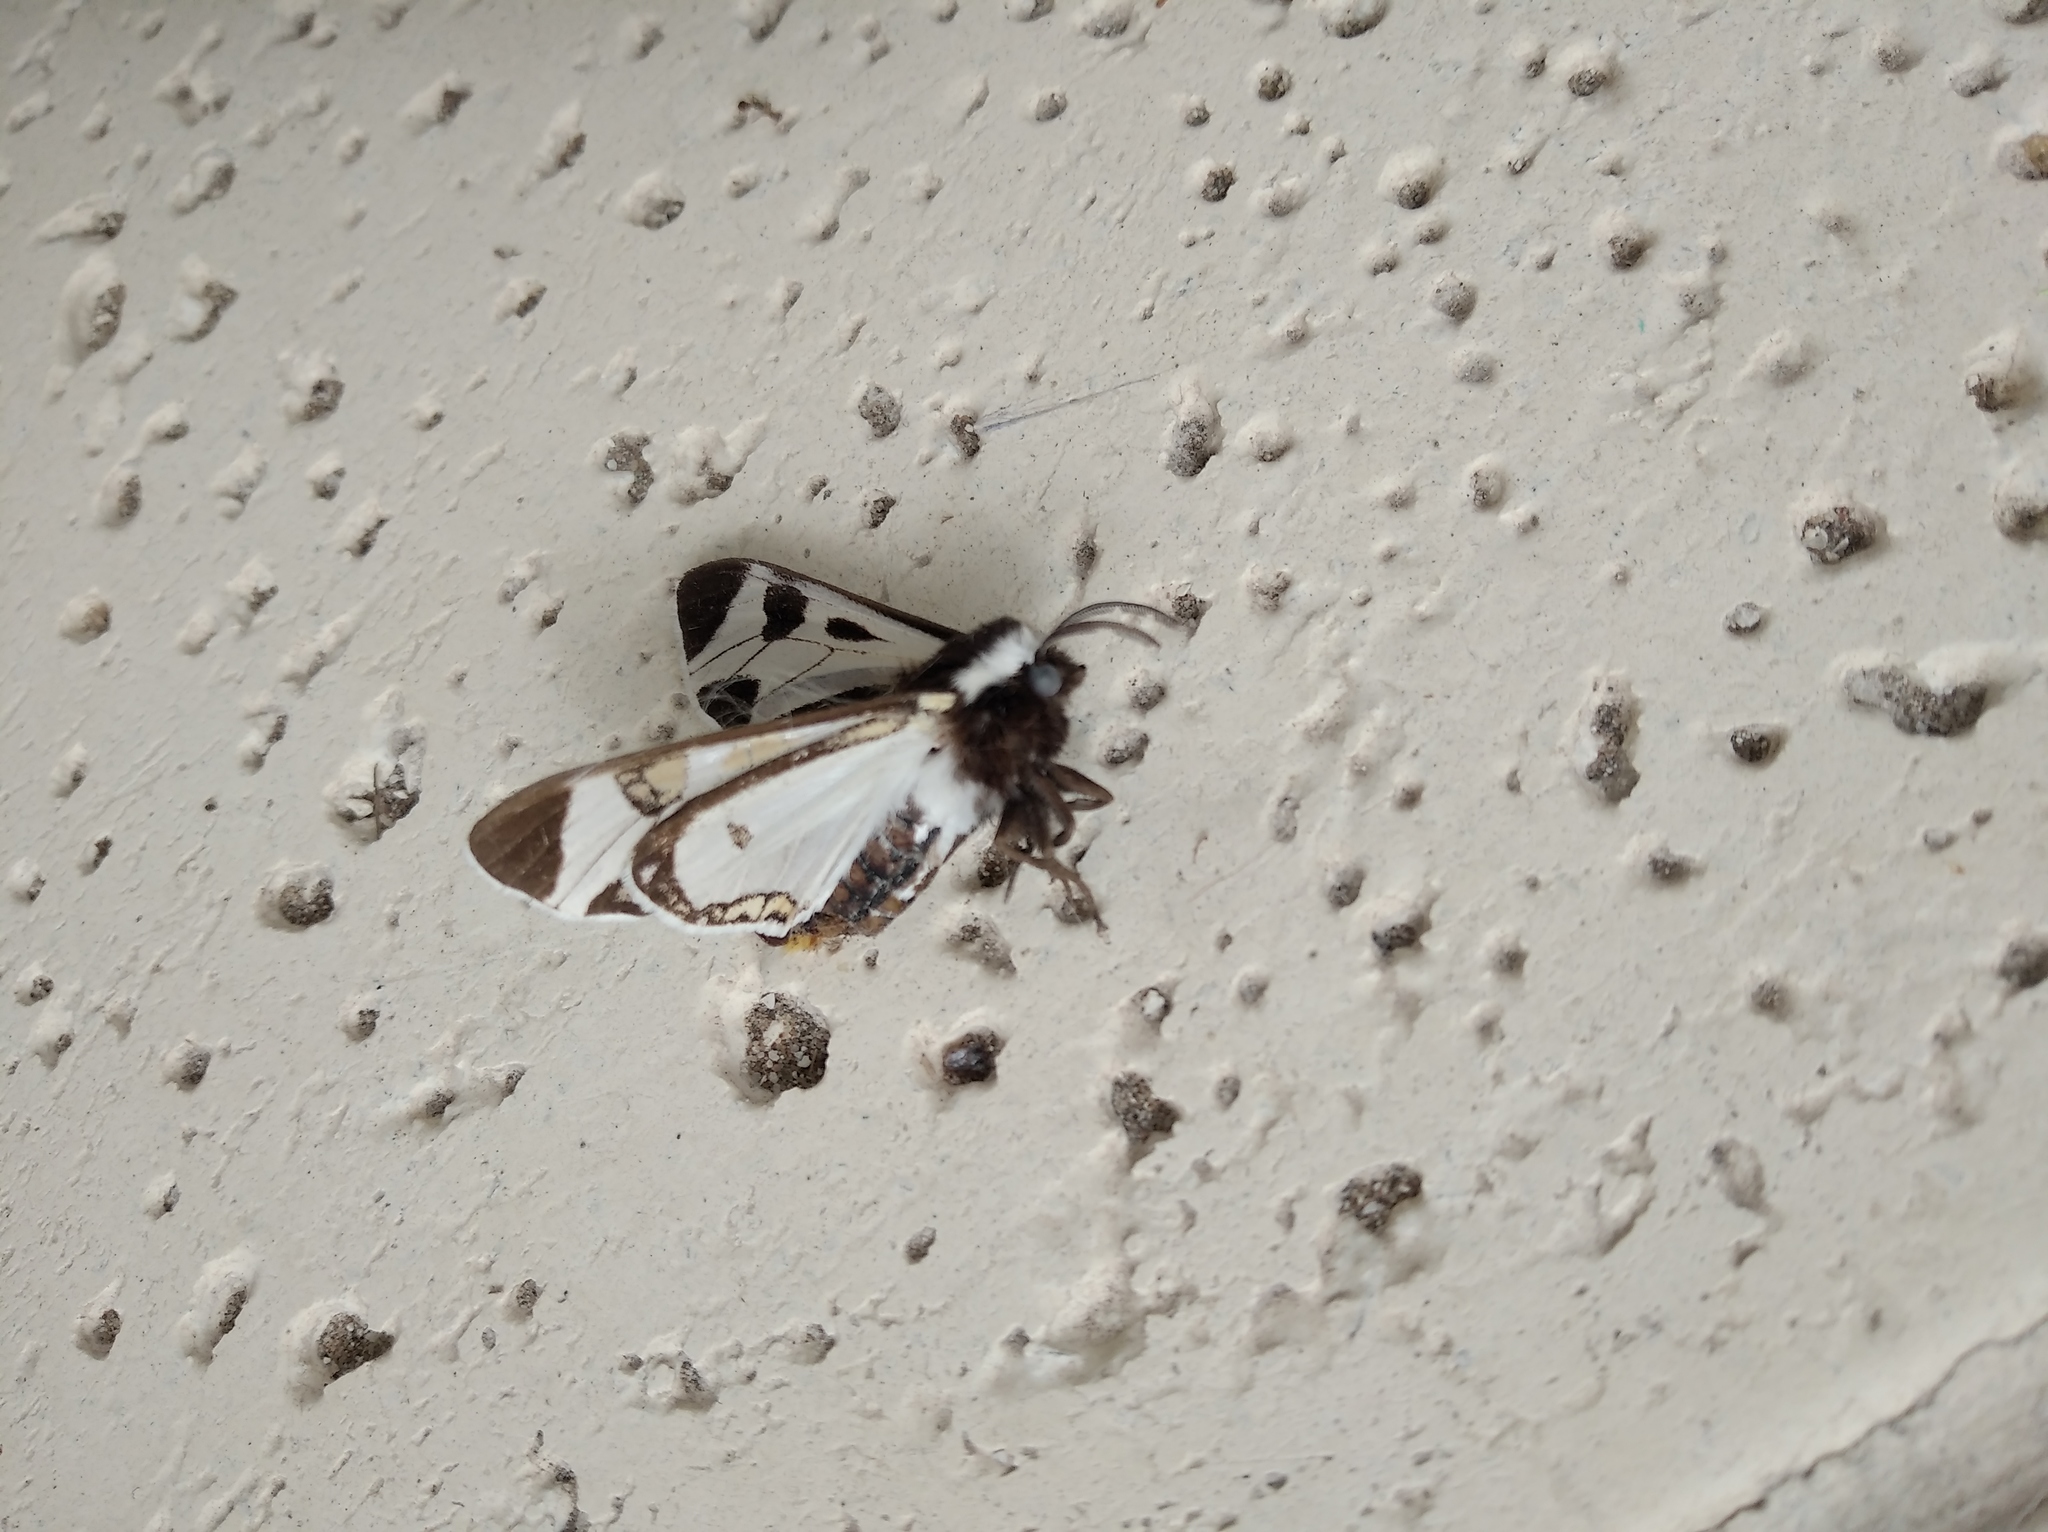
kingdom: Animalia
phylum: Arthropoda
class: Insecta
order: Lepidoptera
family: Erebidae
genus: Dysschema
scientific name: Dysschema centenaria
